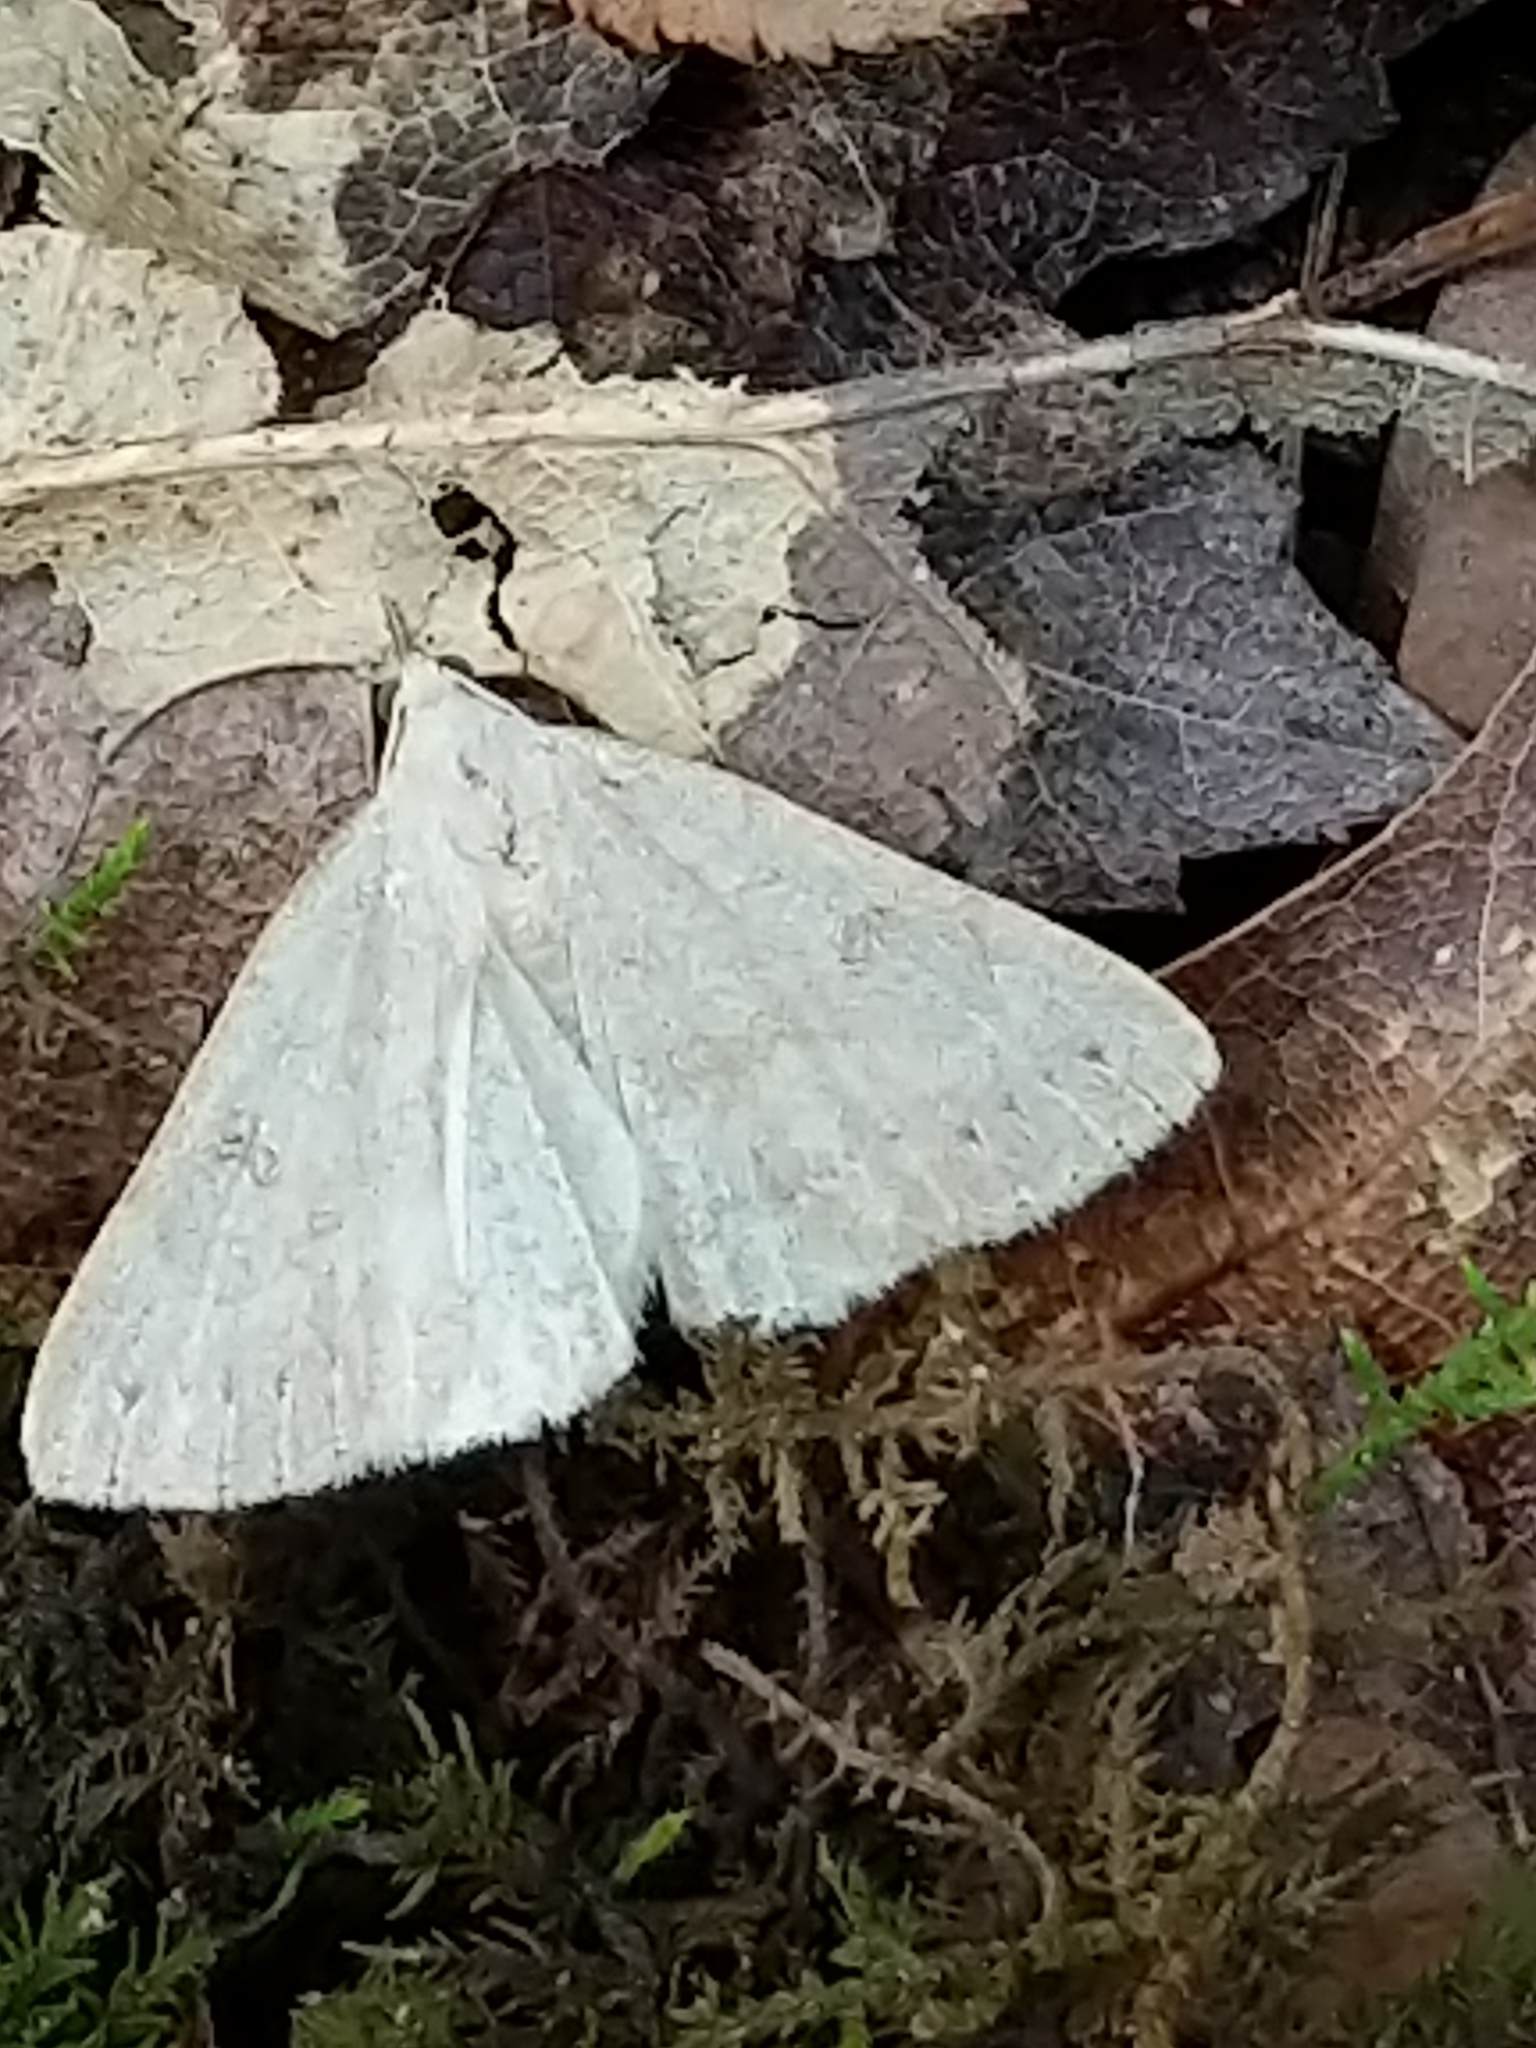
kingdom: Animalia
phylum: Arthropoda
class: Insecta
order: Lepidoptera
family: Erebidae
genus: Macrochilo
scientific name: Macrochilo morbidalis
